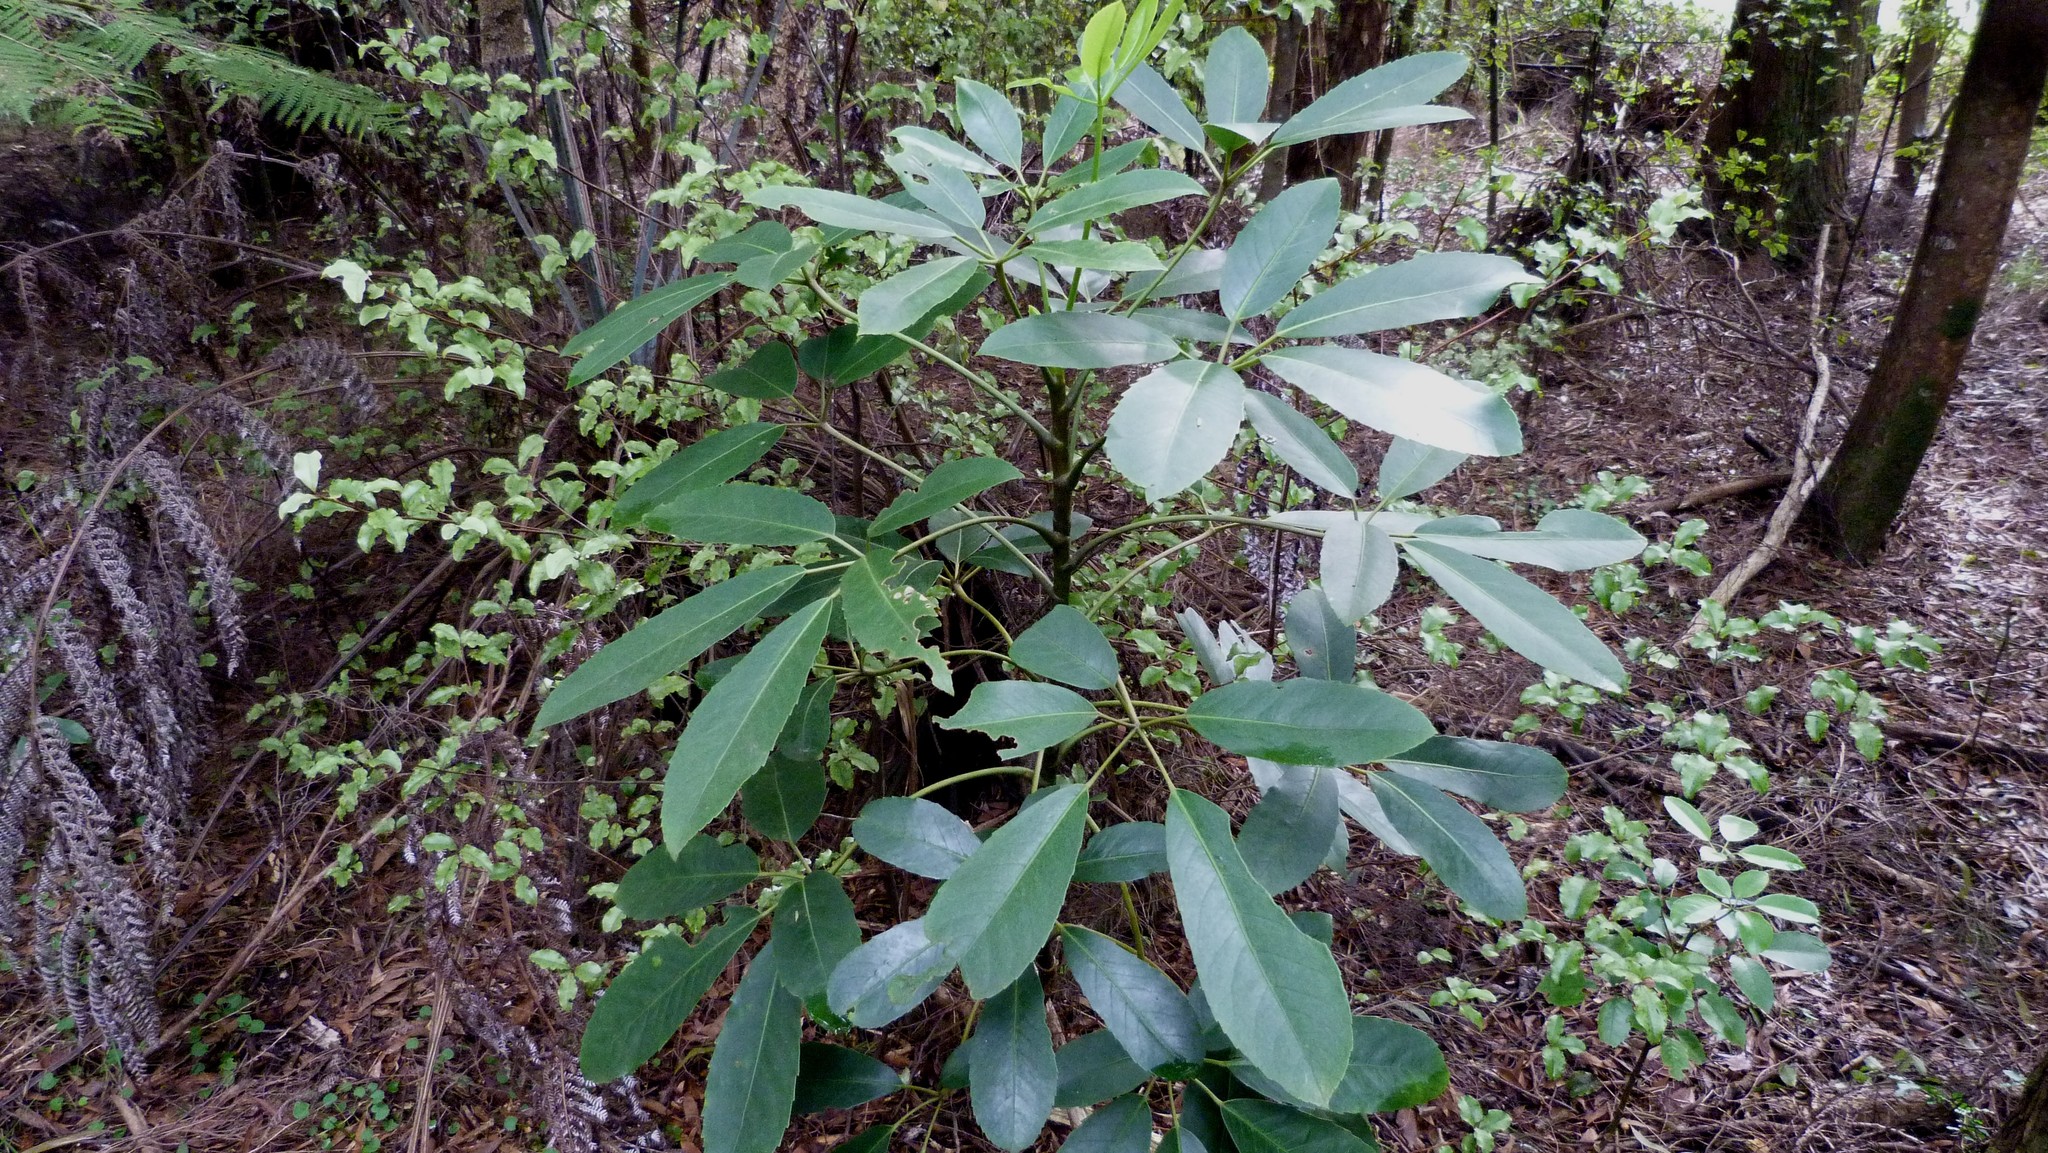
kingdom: Plantae
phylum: Tracheophyta
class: Magnoliopsida
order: Apiales
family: Araliaceae
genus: Neopanax
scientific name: Neopanax arboreus
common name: Five-fingers
